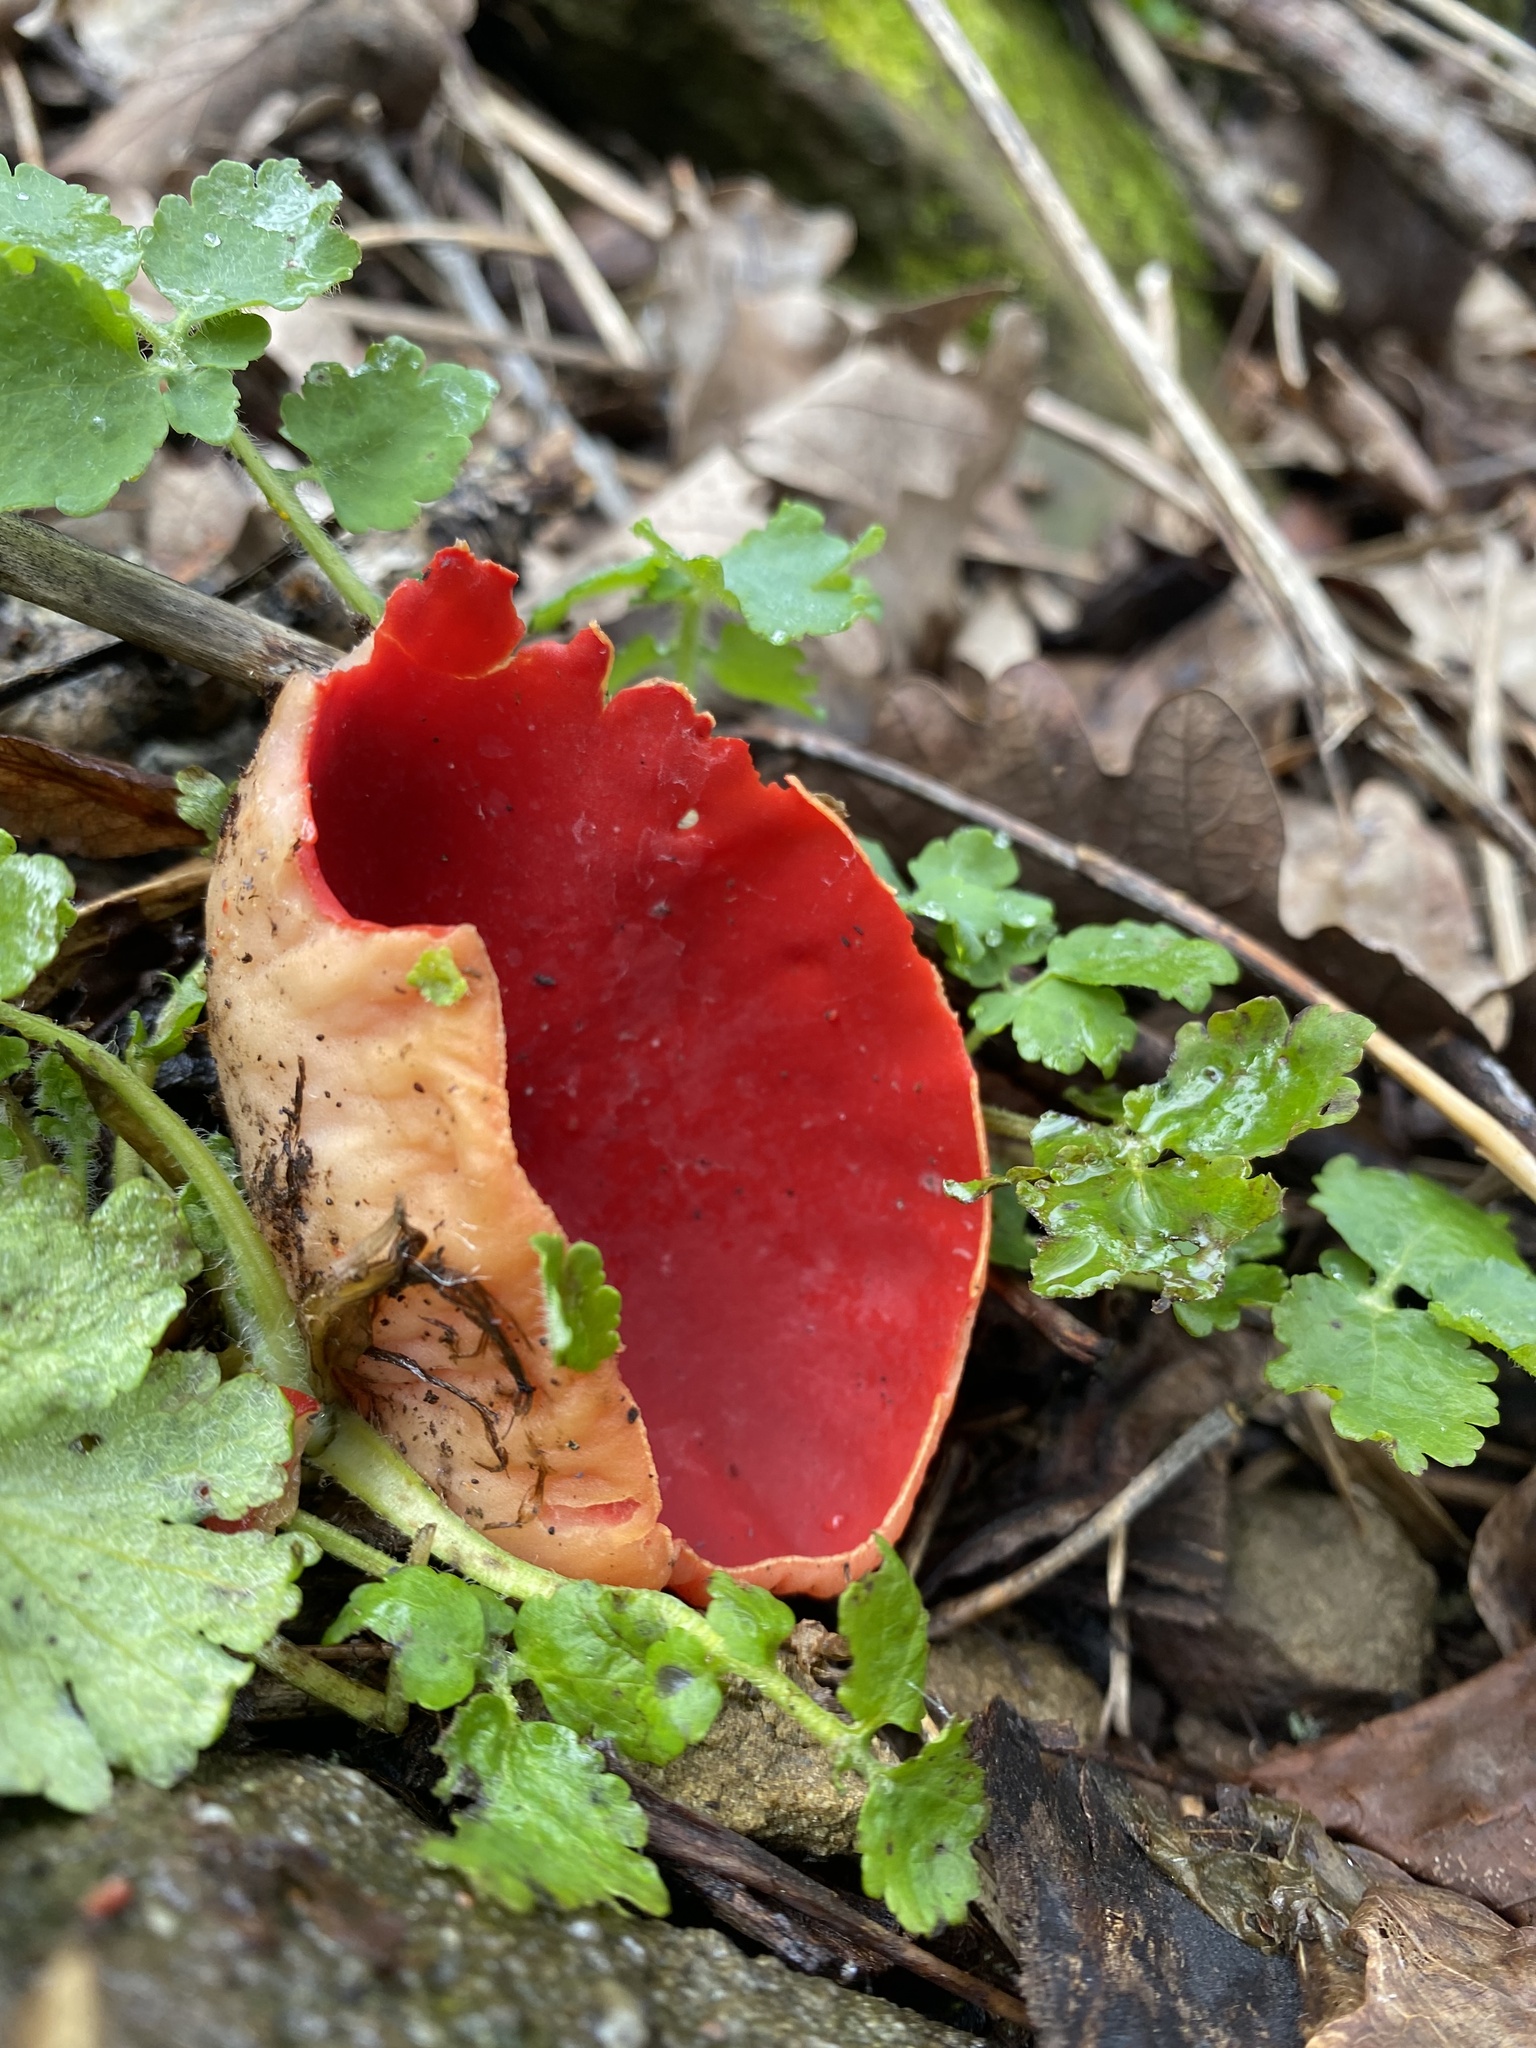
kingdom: Fungi
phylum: Ascomycota
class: Pezizomycetes
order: Pezizales
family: Sarcoscyphaceae
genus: Sarcoscypha
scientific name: Sarcoscypha
